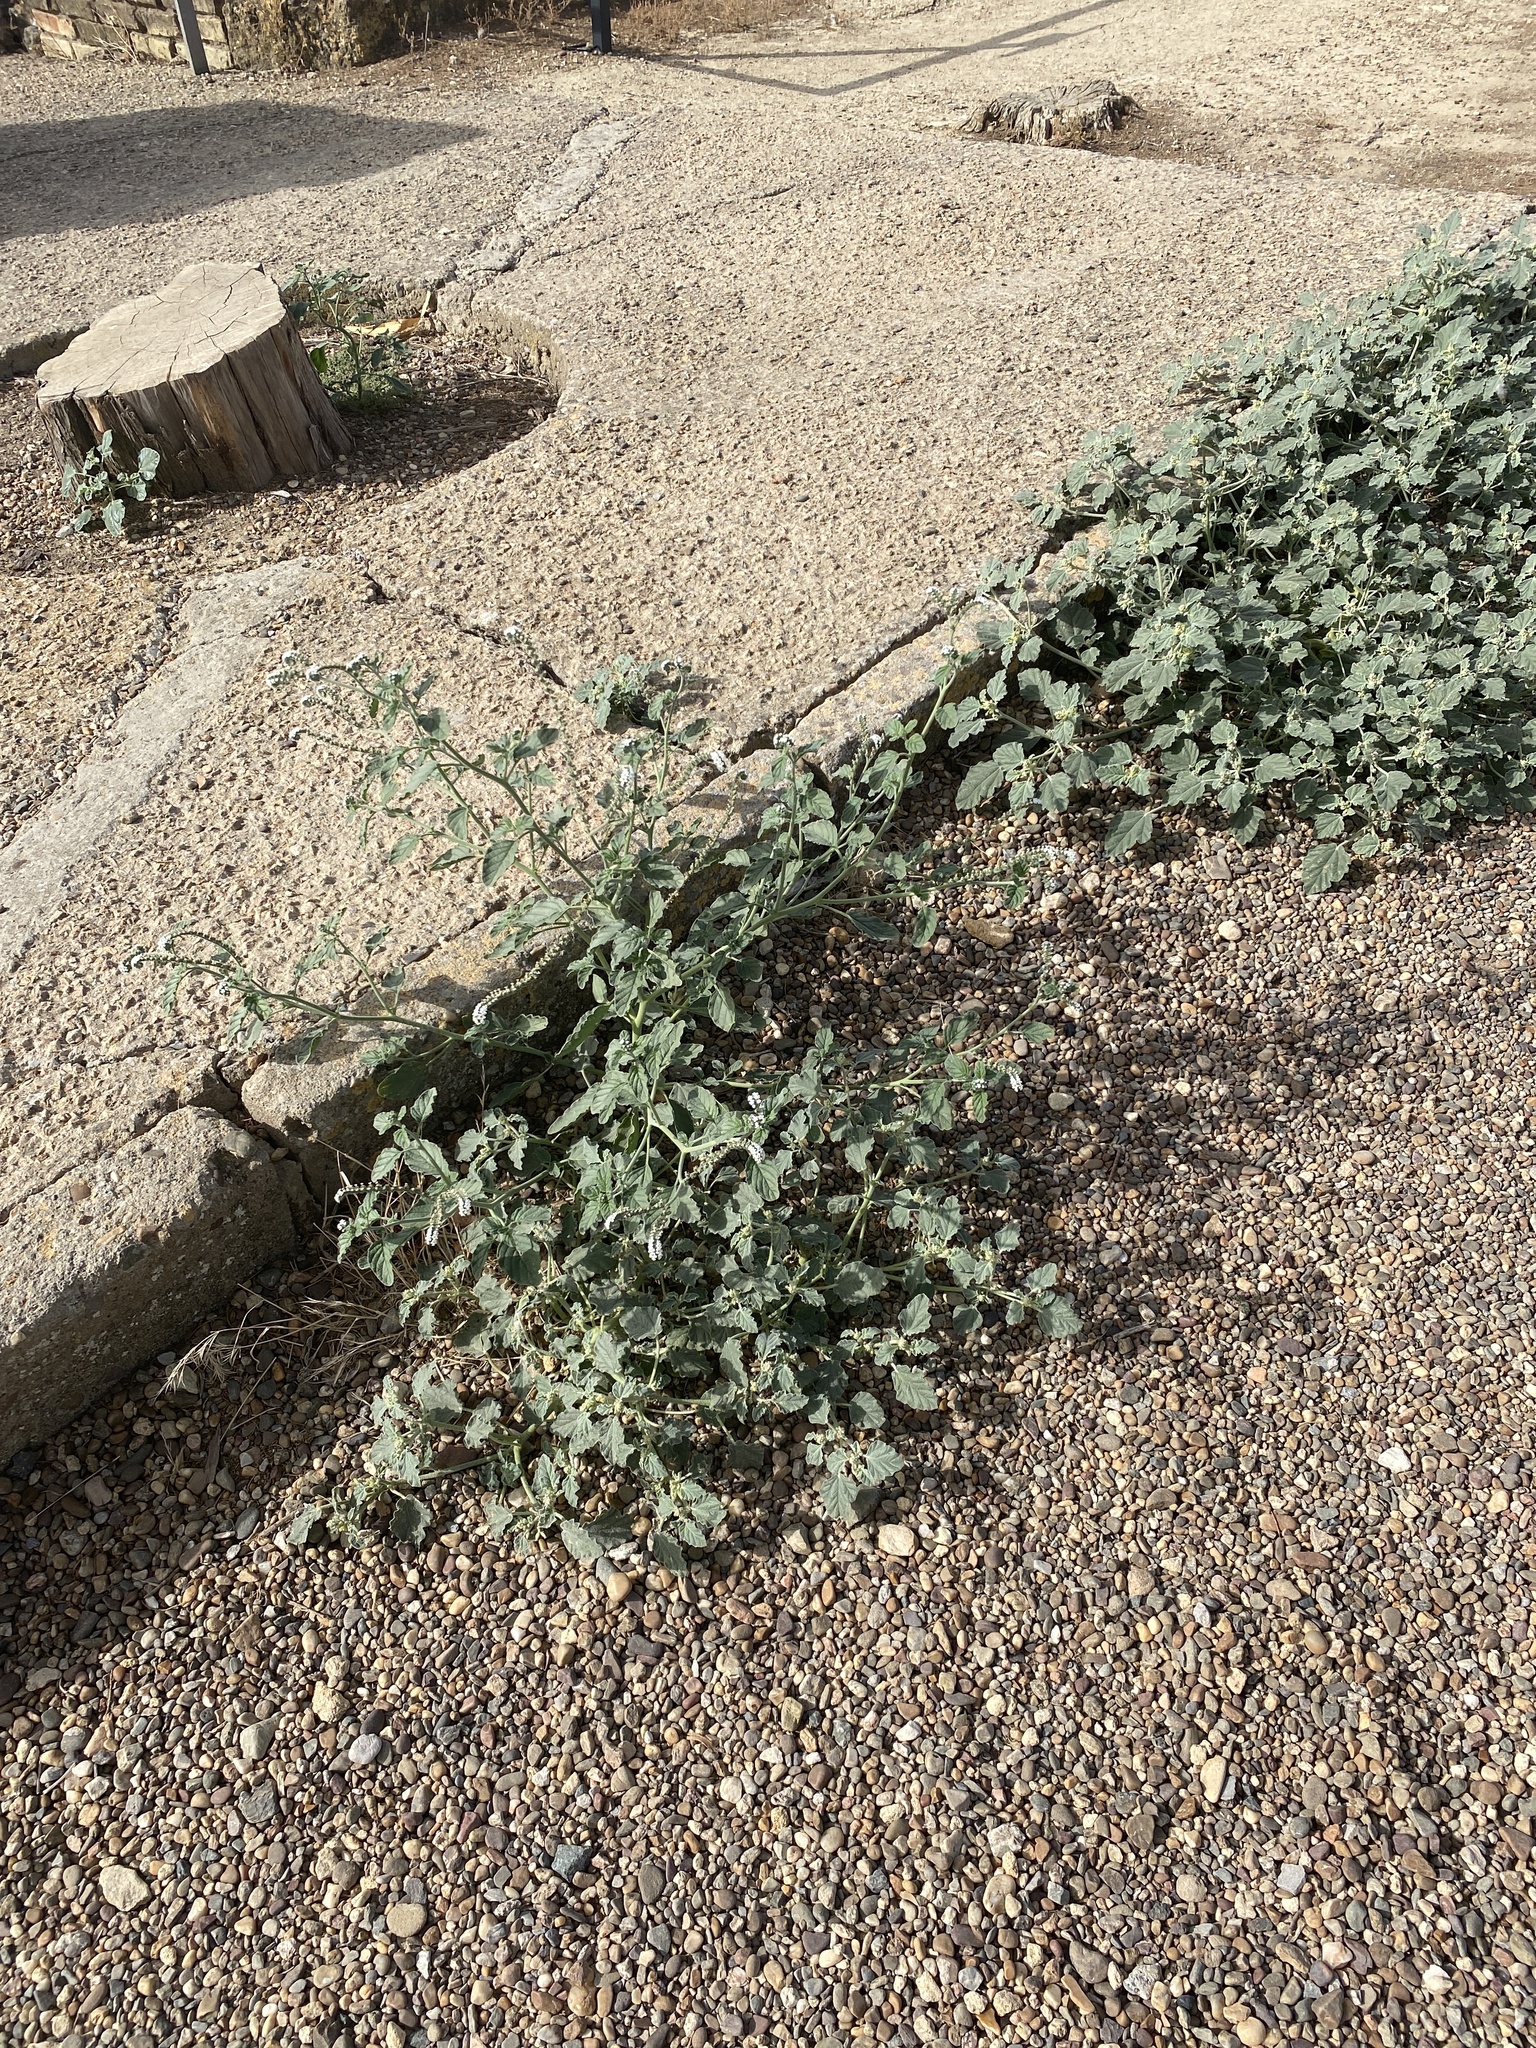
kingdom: Plantae
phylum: Tracheophyta
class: Magnoliopsida
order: Boraginales
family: Heliotropiaceae
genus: Heliotropium
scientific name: Heliotropium europaeum
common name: European heliotrope
